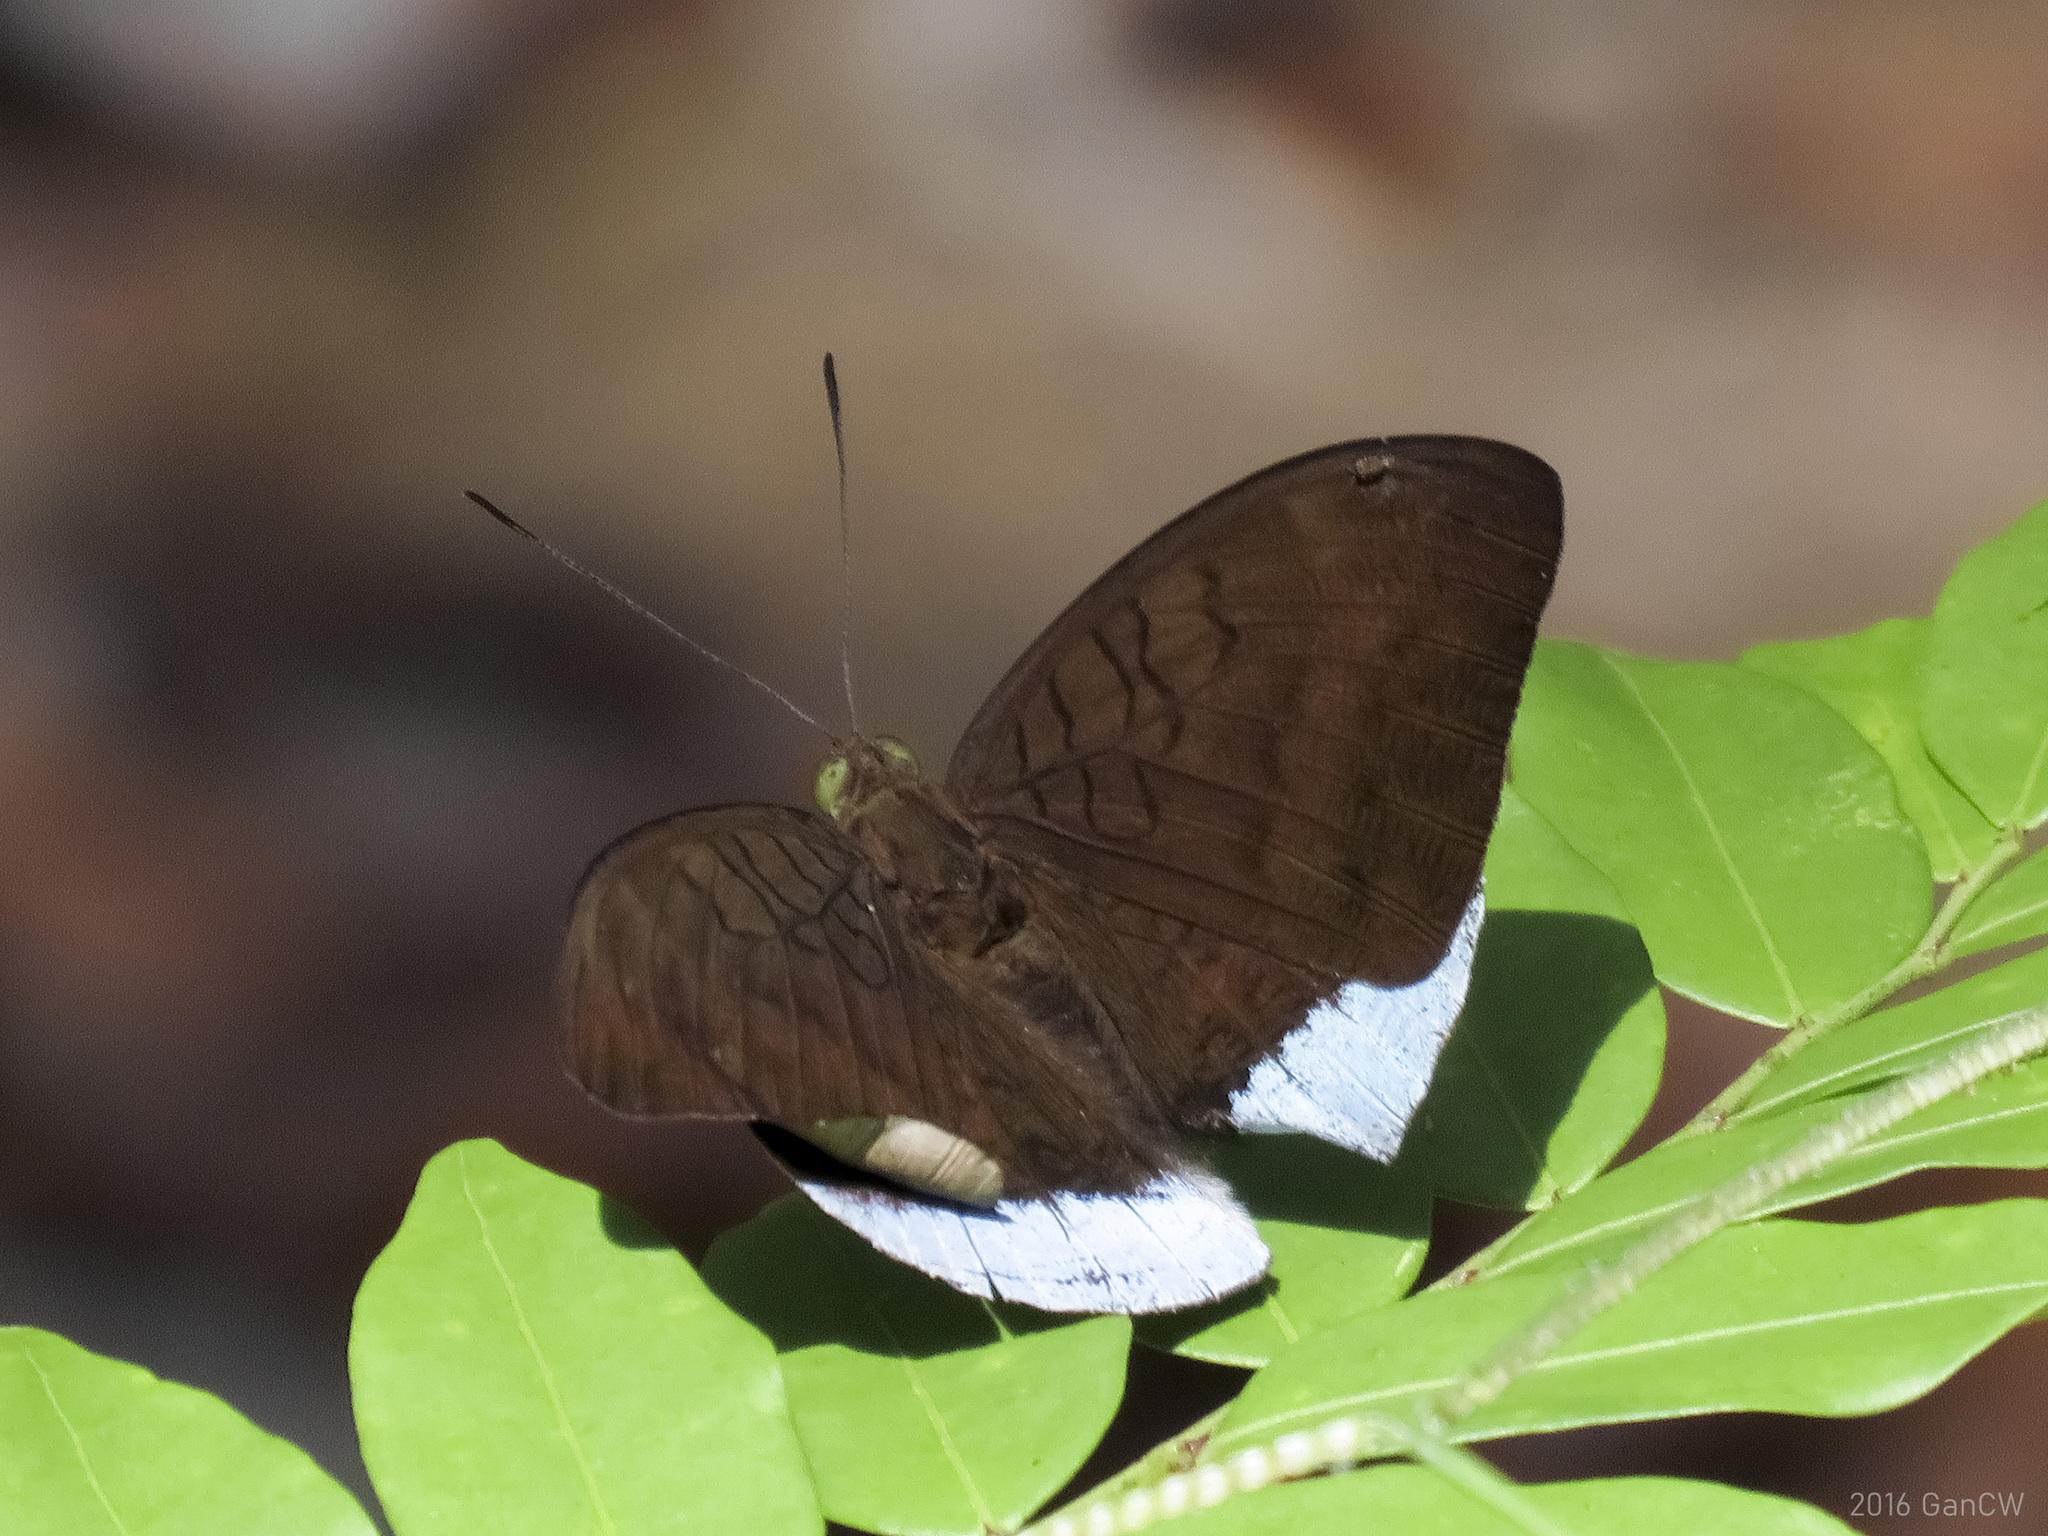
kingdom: Animalia
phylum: Arthropoda
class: Insecta
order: Lepidoptera
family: Nymphalidae
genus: Tanaecia
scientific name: Tanaecia julii
